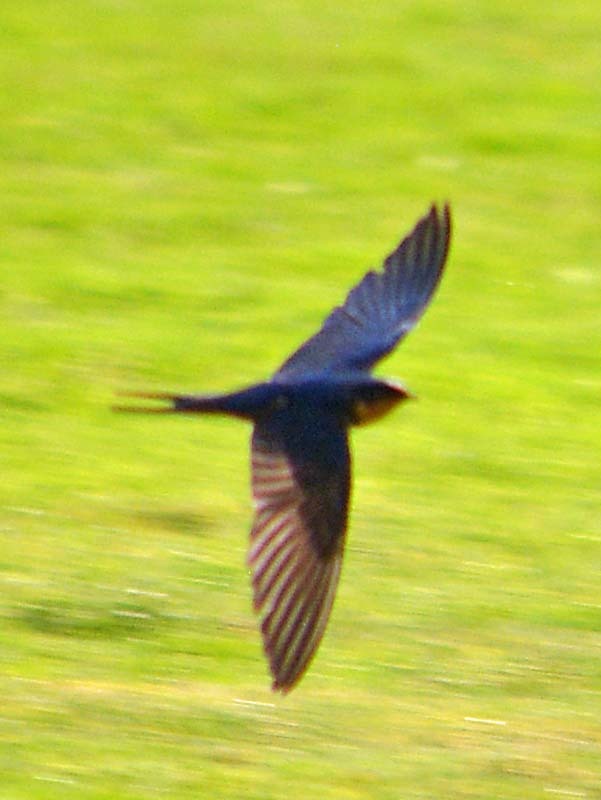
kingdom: Animalia
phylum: Chordata
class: Aves
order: Passeriformes
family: Hirundinidae
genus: Hirundo
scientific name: Hirundo rustica
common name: Barn swallow
